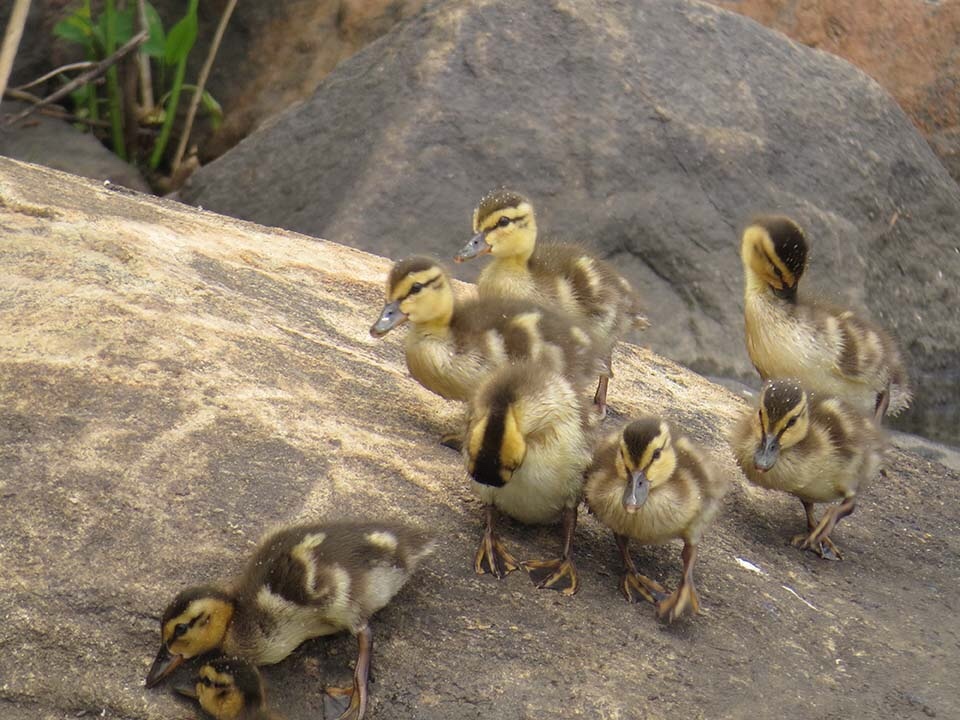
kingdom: Animalia
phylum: Chordata
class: Aves
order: Anseriformes
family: Anatidae
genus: Anas
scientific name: Anas platyrhynchos
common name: Mallard
